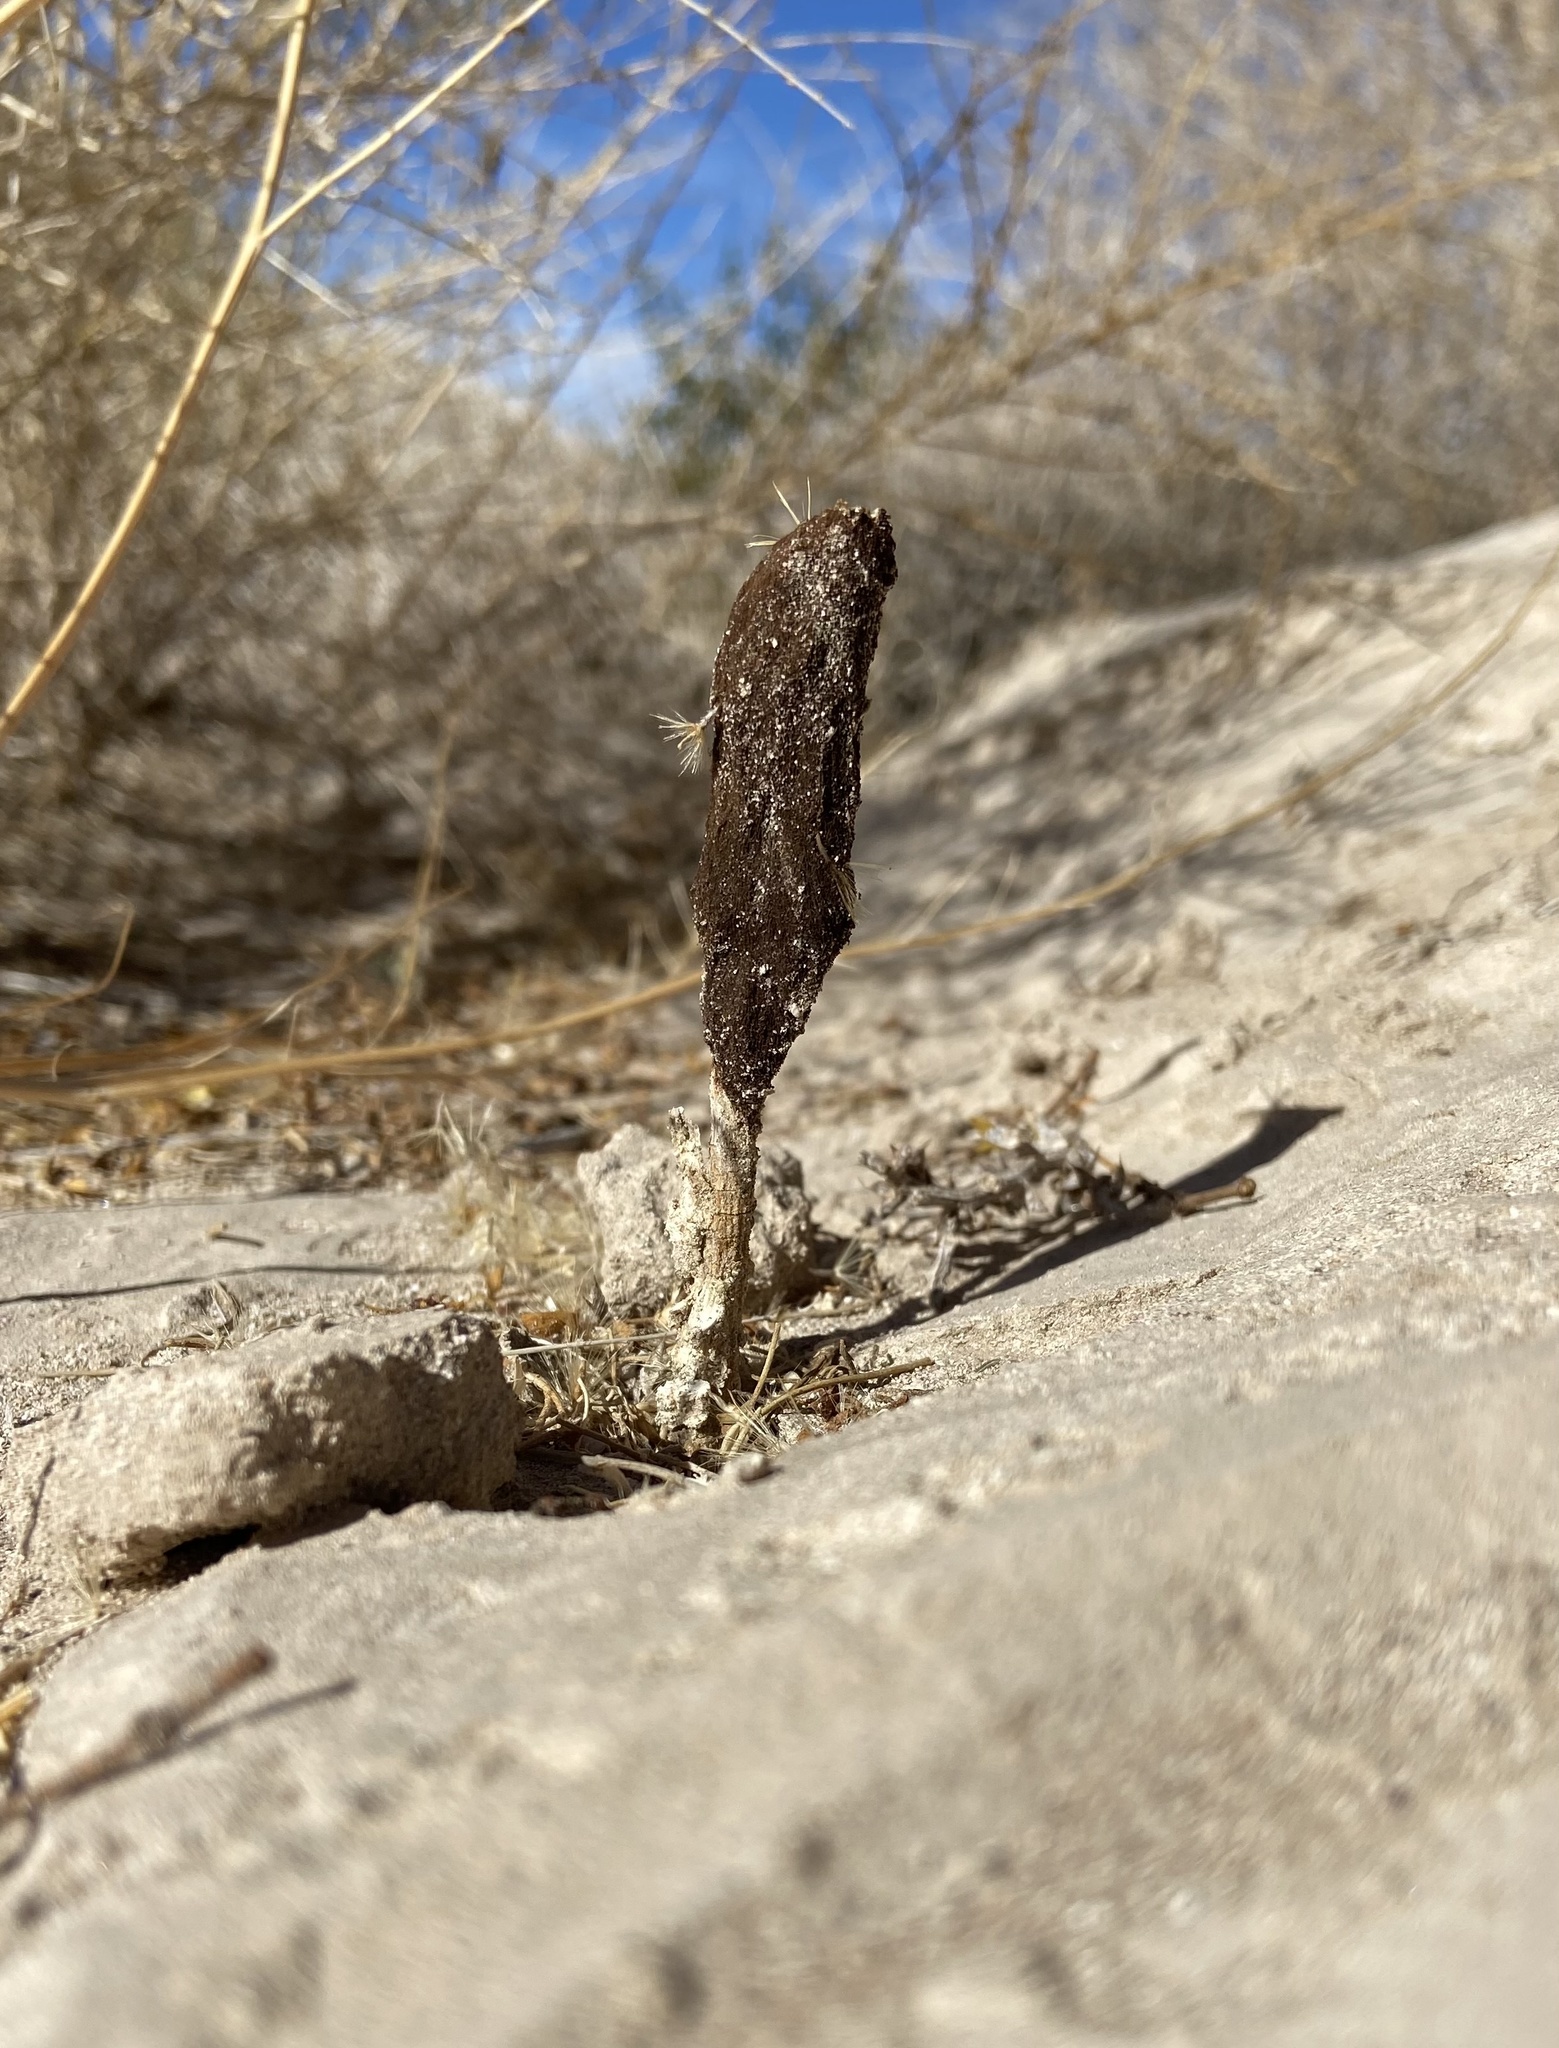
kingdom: Fungi
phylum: Basidiomycota
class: Agaricomycetes
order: Agaricales
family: Agaricaceae
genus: Podaxis
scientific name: Podaxis pistillaris
